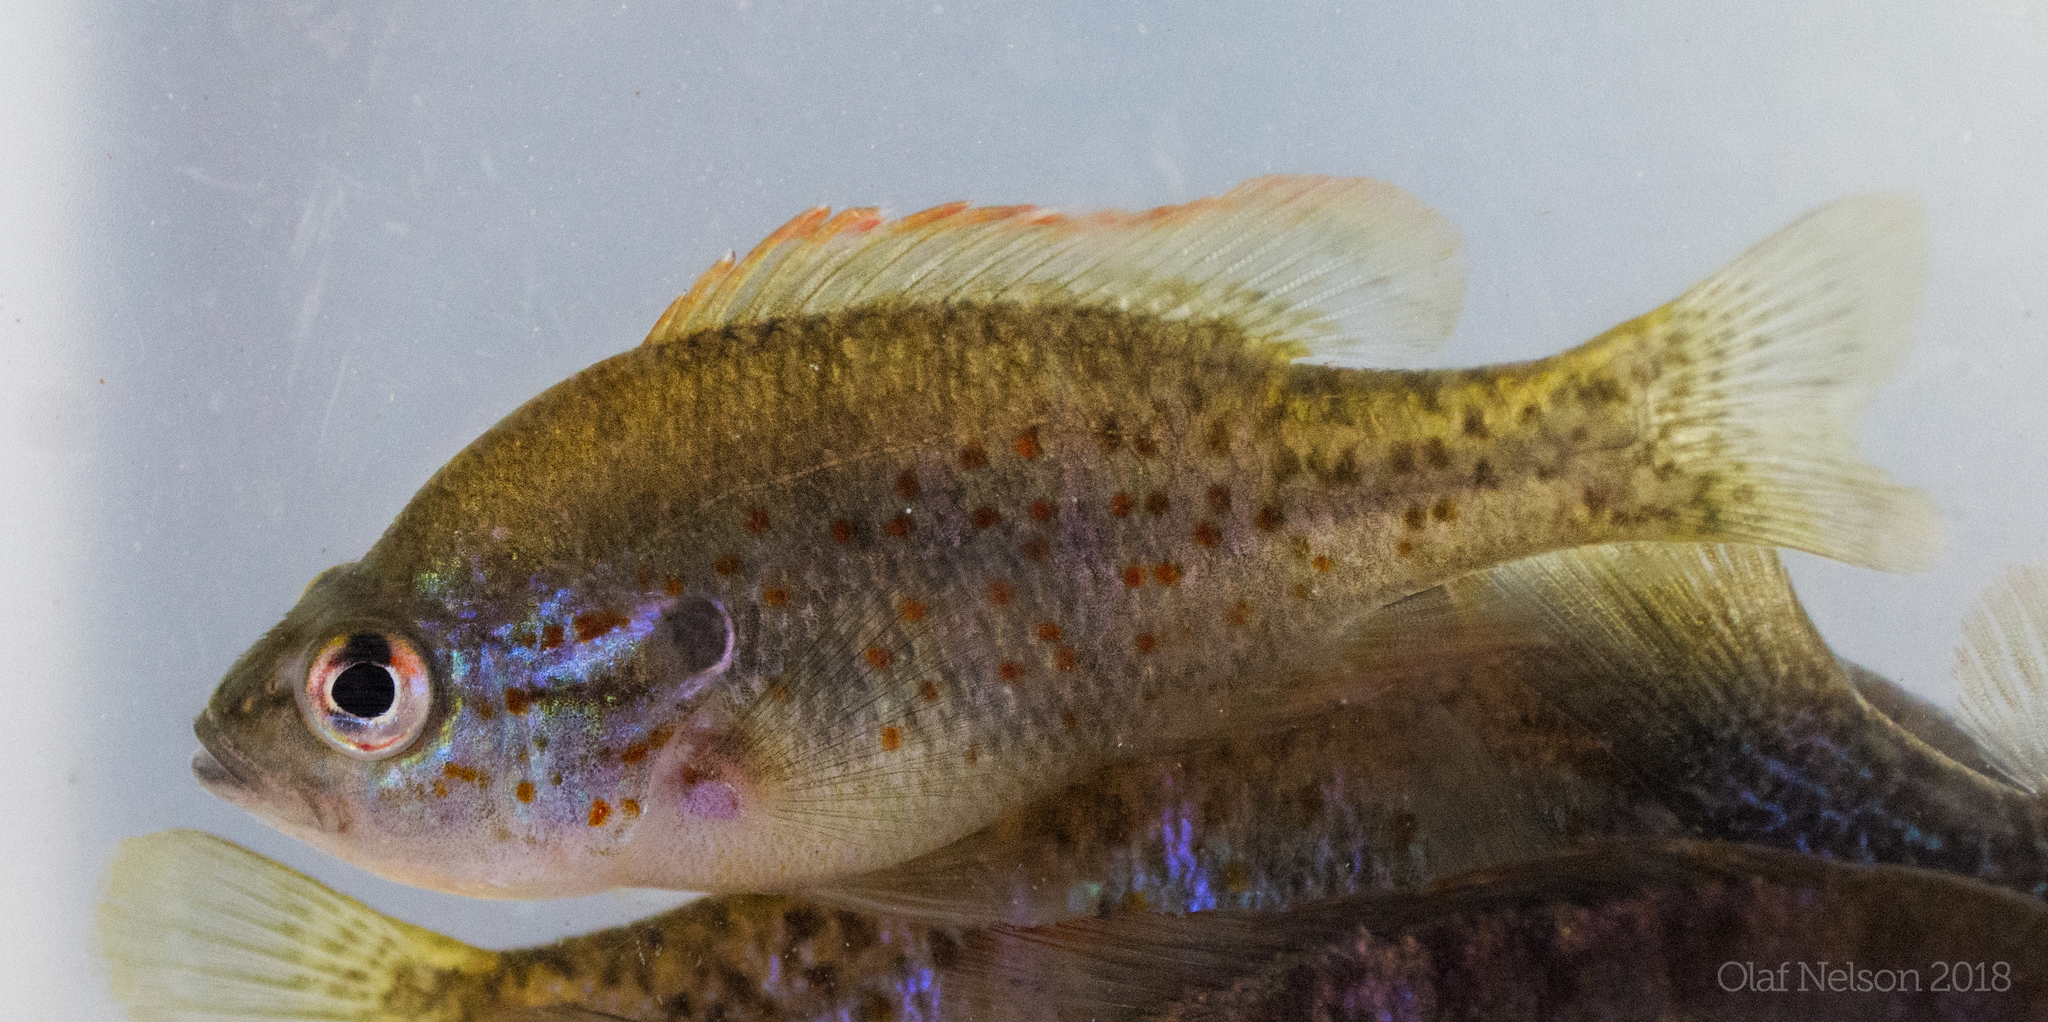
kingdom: Animalia
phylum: Chordata
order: Perciformes
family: Centrarchidae
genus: Lepomis
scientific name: Lepomis humilis
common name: Orangespotted sunfish
